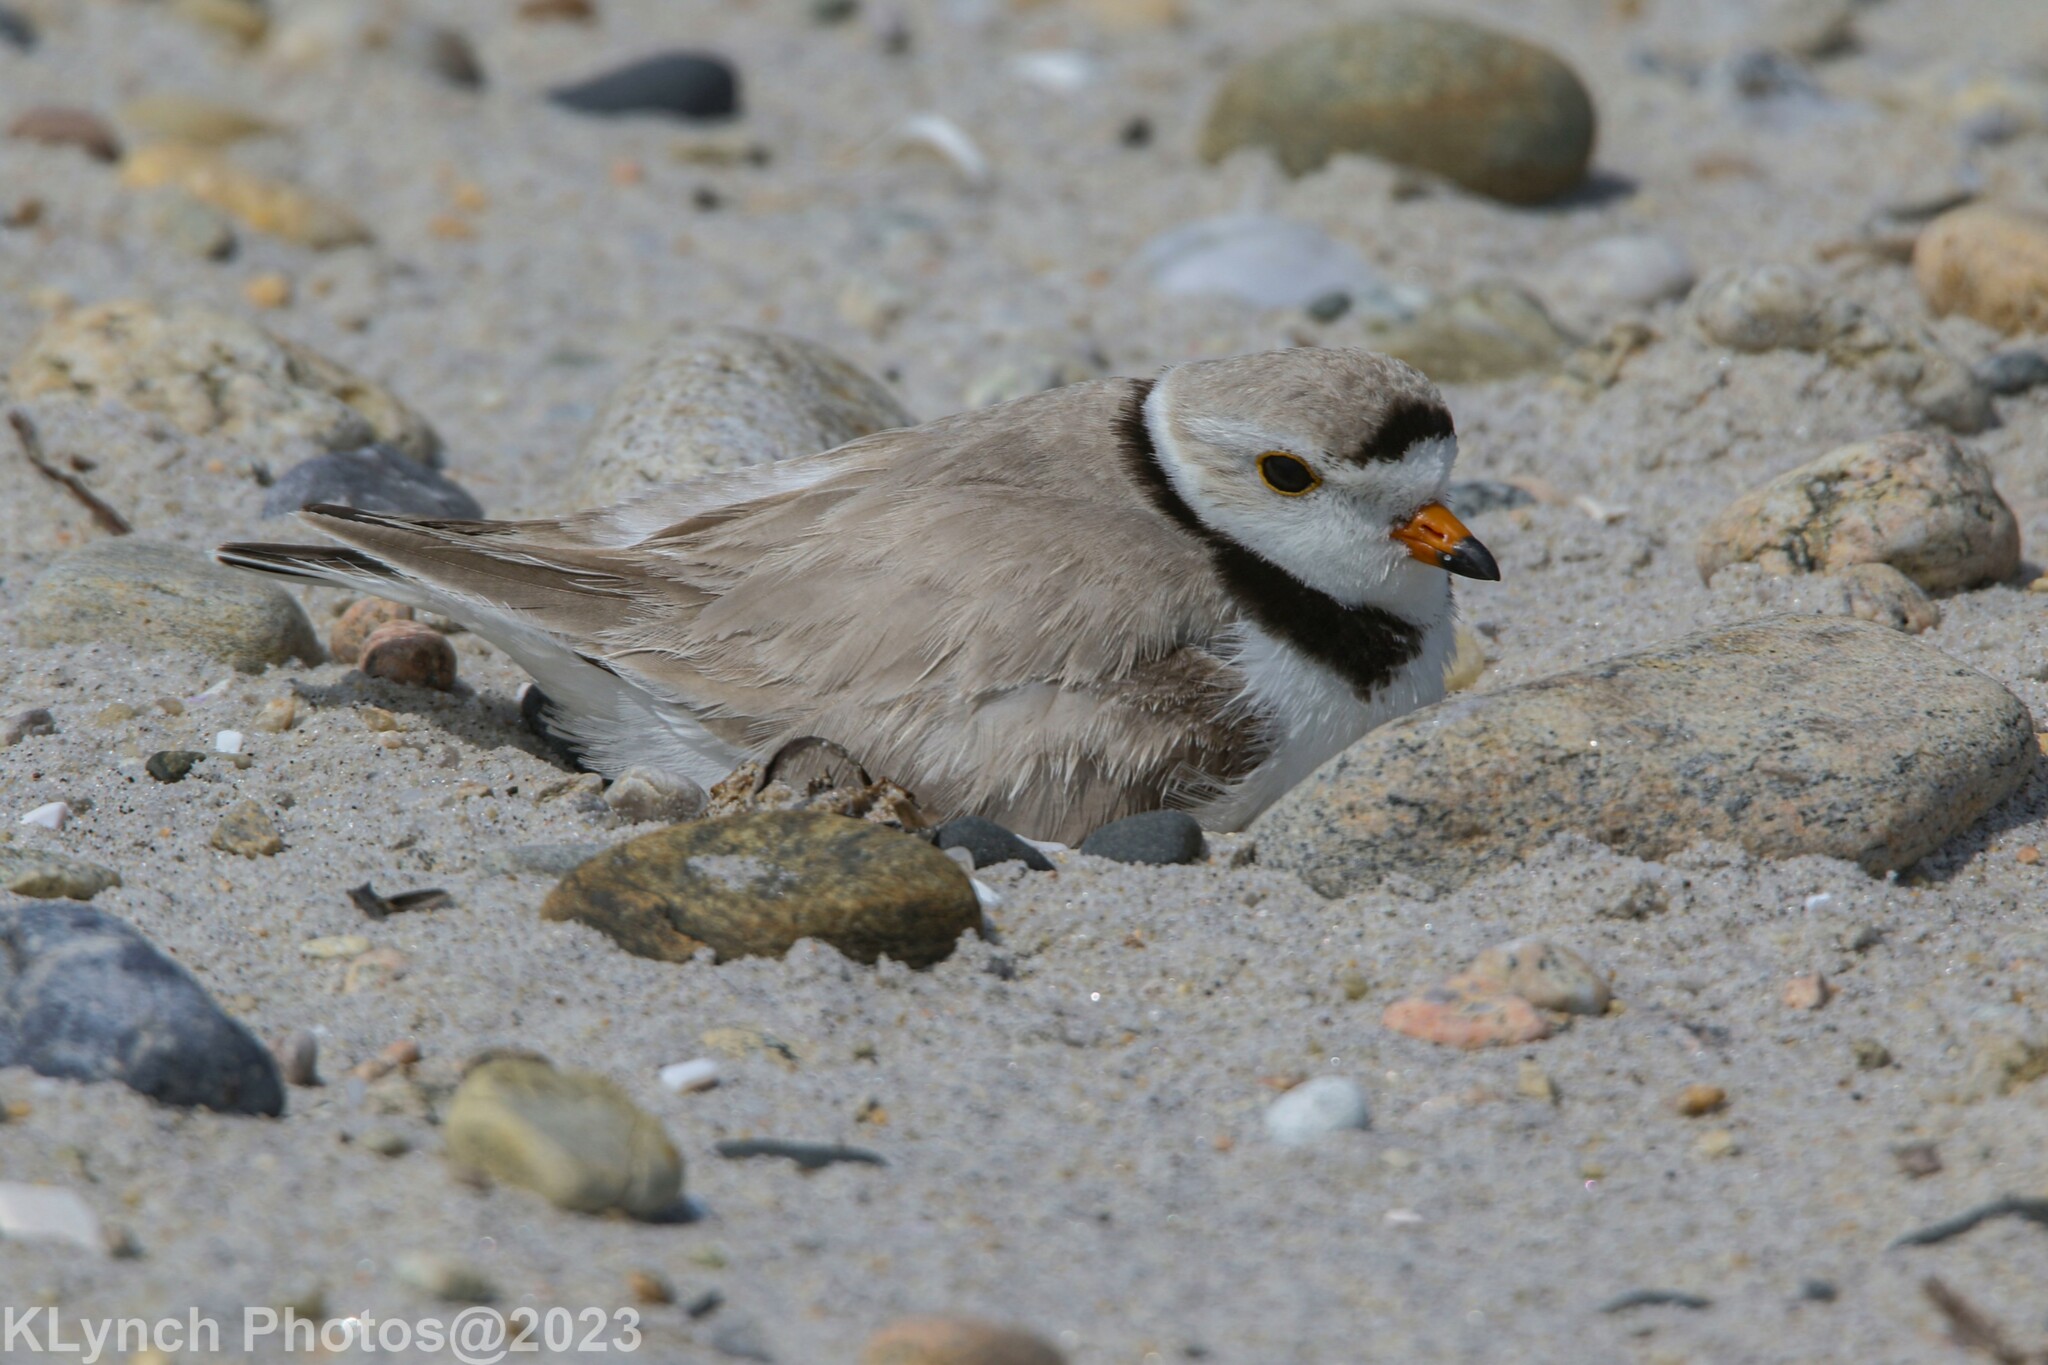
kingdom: Animalia
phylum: Chordata
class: Aves
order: Charadriiformes
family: Charadriidae
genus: Charadrius
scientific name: Charadrius melodus
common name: Piping plover
